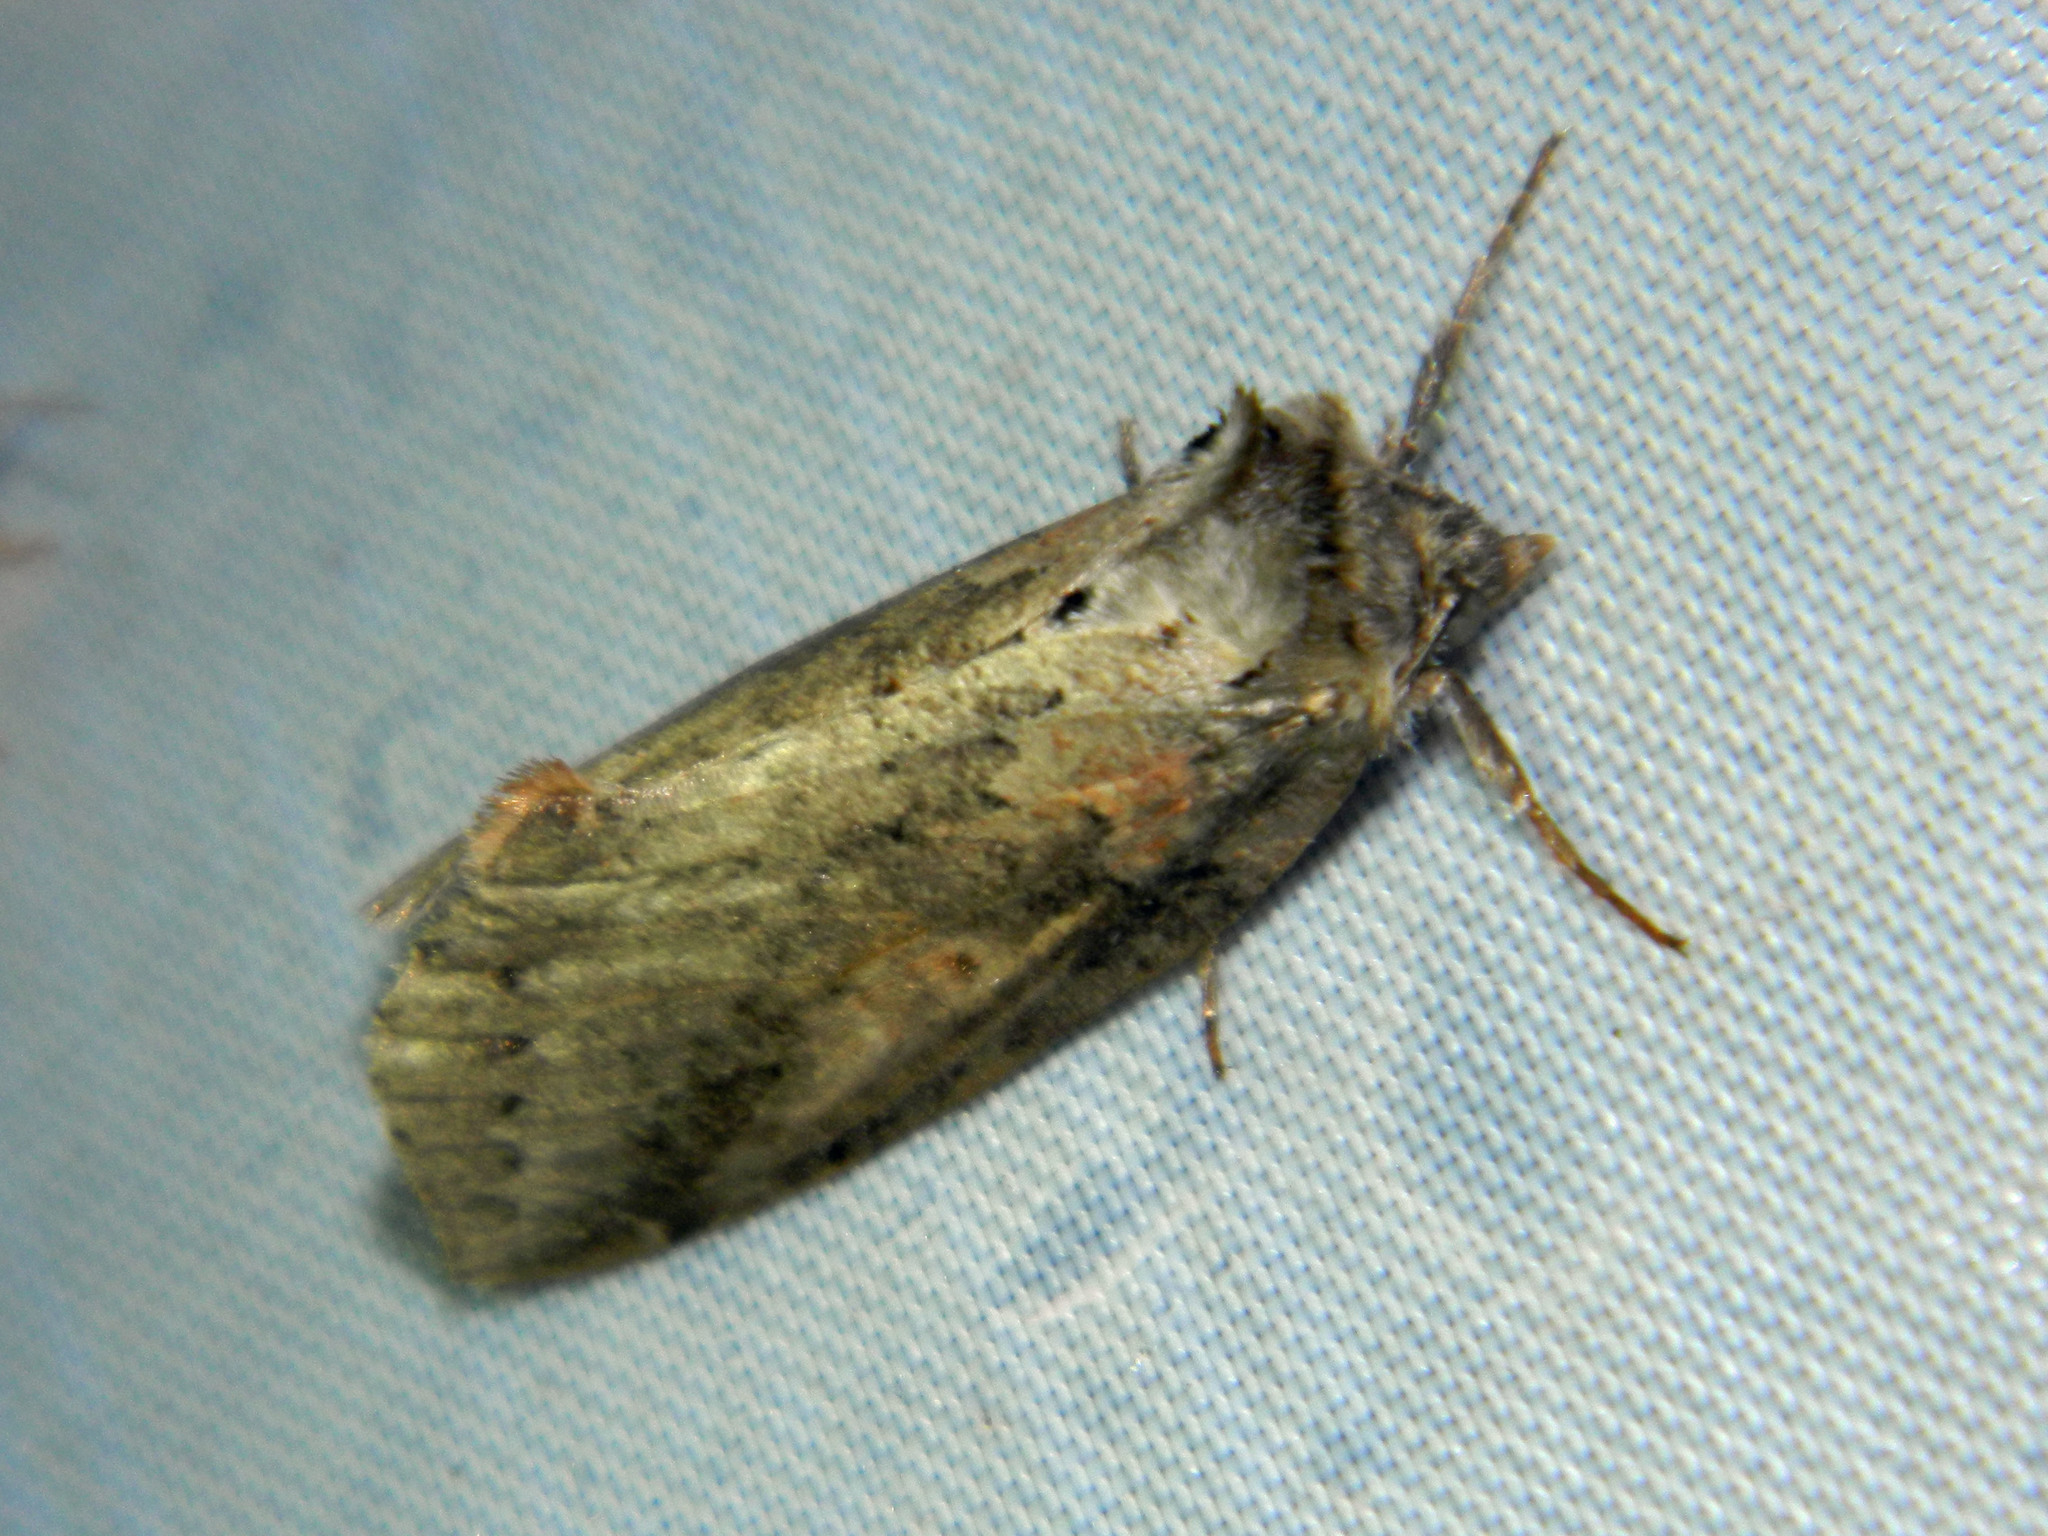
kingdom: Animalia
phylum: Arthropoda
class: Insecta
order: Lepidoptera
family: Drepanidae
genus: Pseudothyatira
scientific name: Pseudothyatira cymatophoroides
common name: Tufted thyatirid moth
